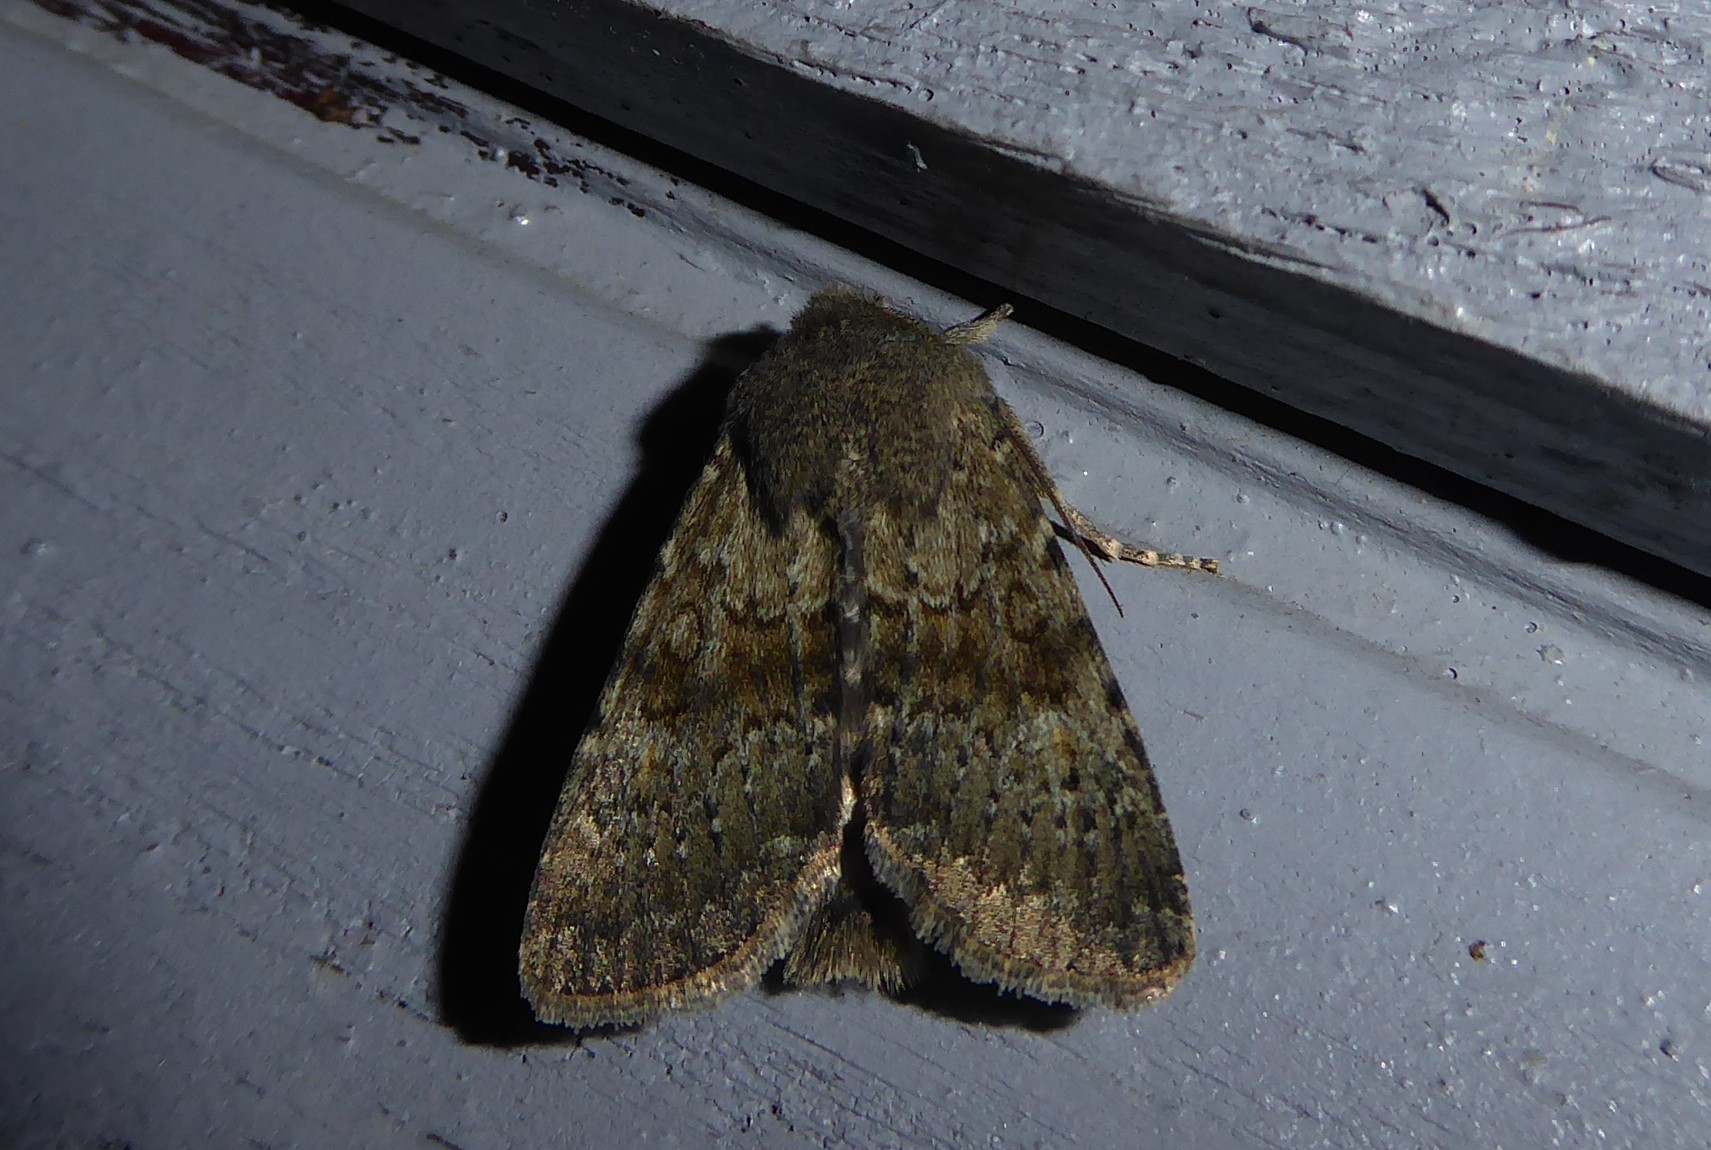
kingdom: Animalia
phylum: Arthropoda
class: Insecta
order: Lepidoptera
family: Noctuidae
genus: Ichneutica
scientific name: Ichneutica moderata
